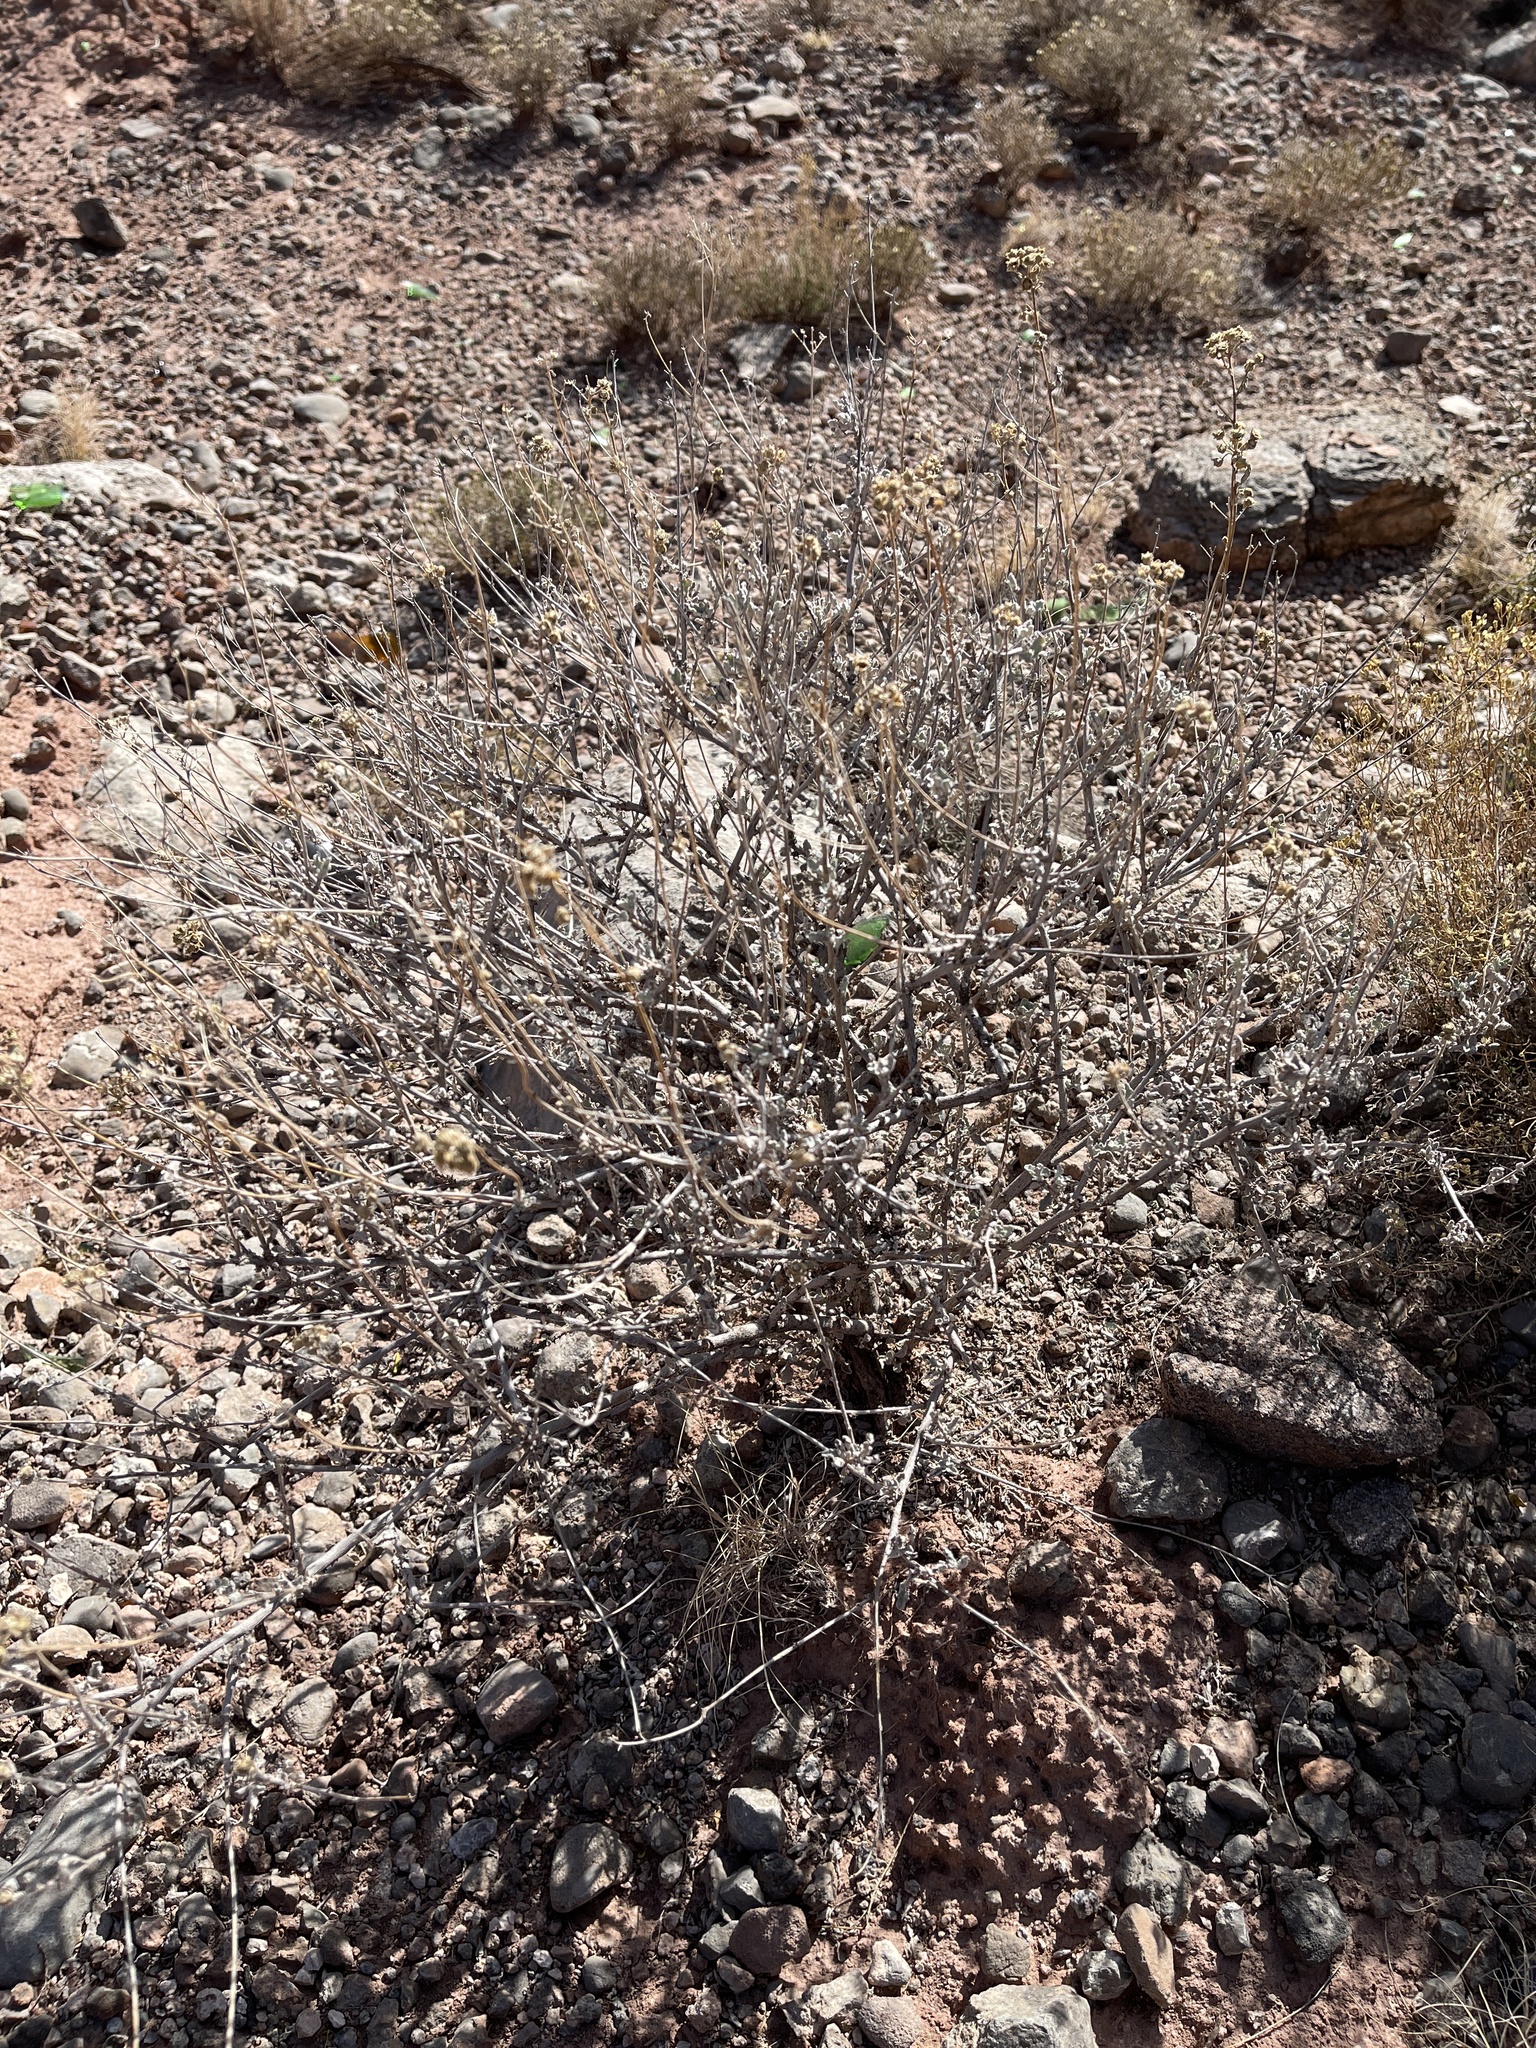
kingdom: Plantae
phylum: Tracheophyta
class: Magnoliopsida
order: Asterales
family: Asteraceae
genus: Parthenium
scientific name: Parthenium incanum
